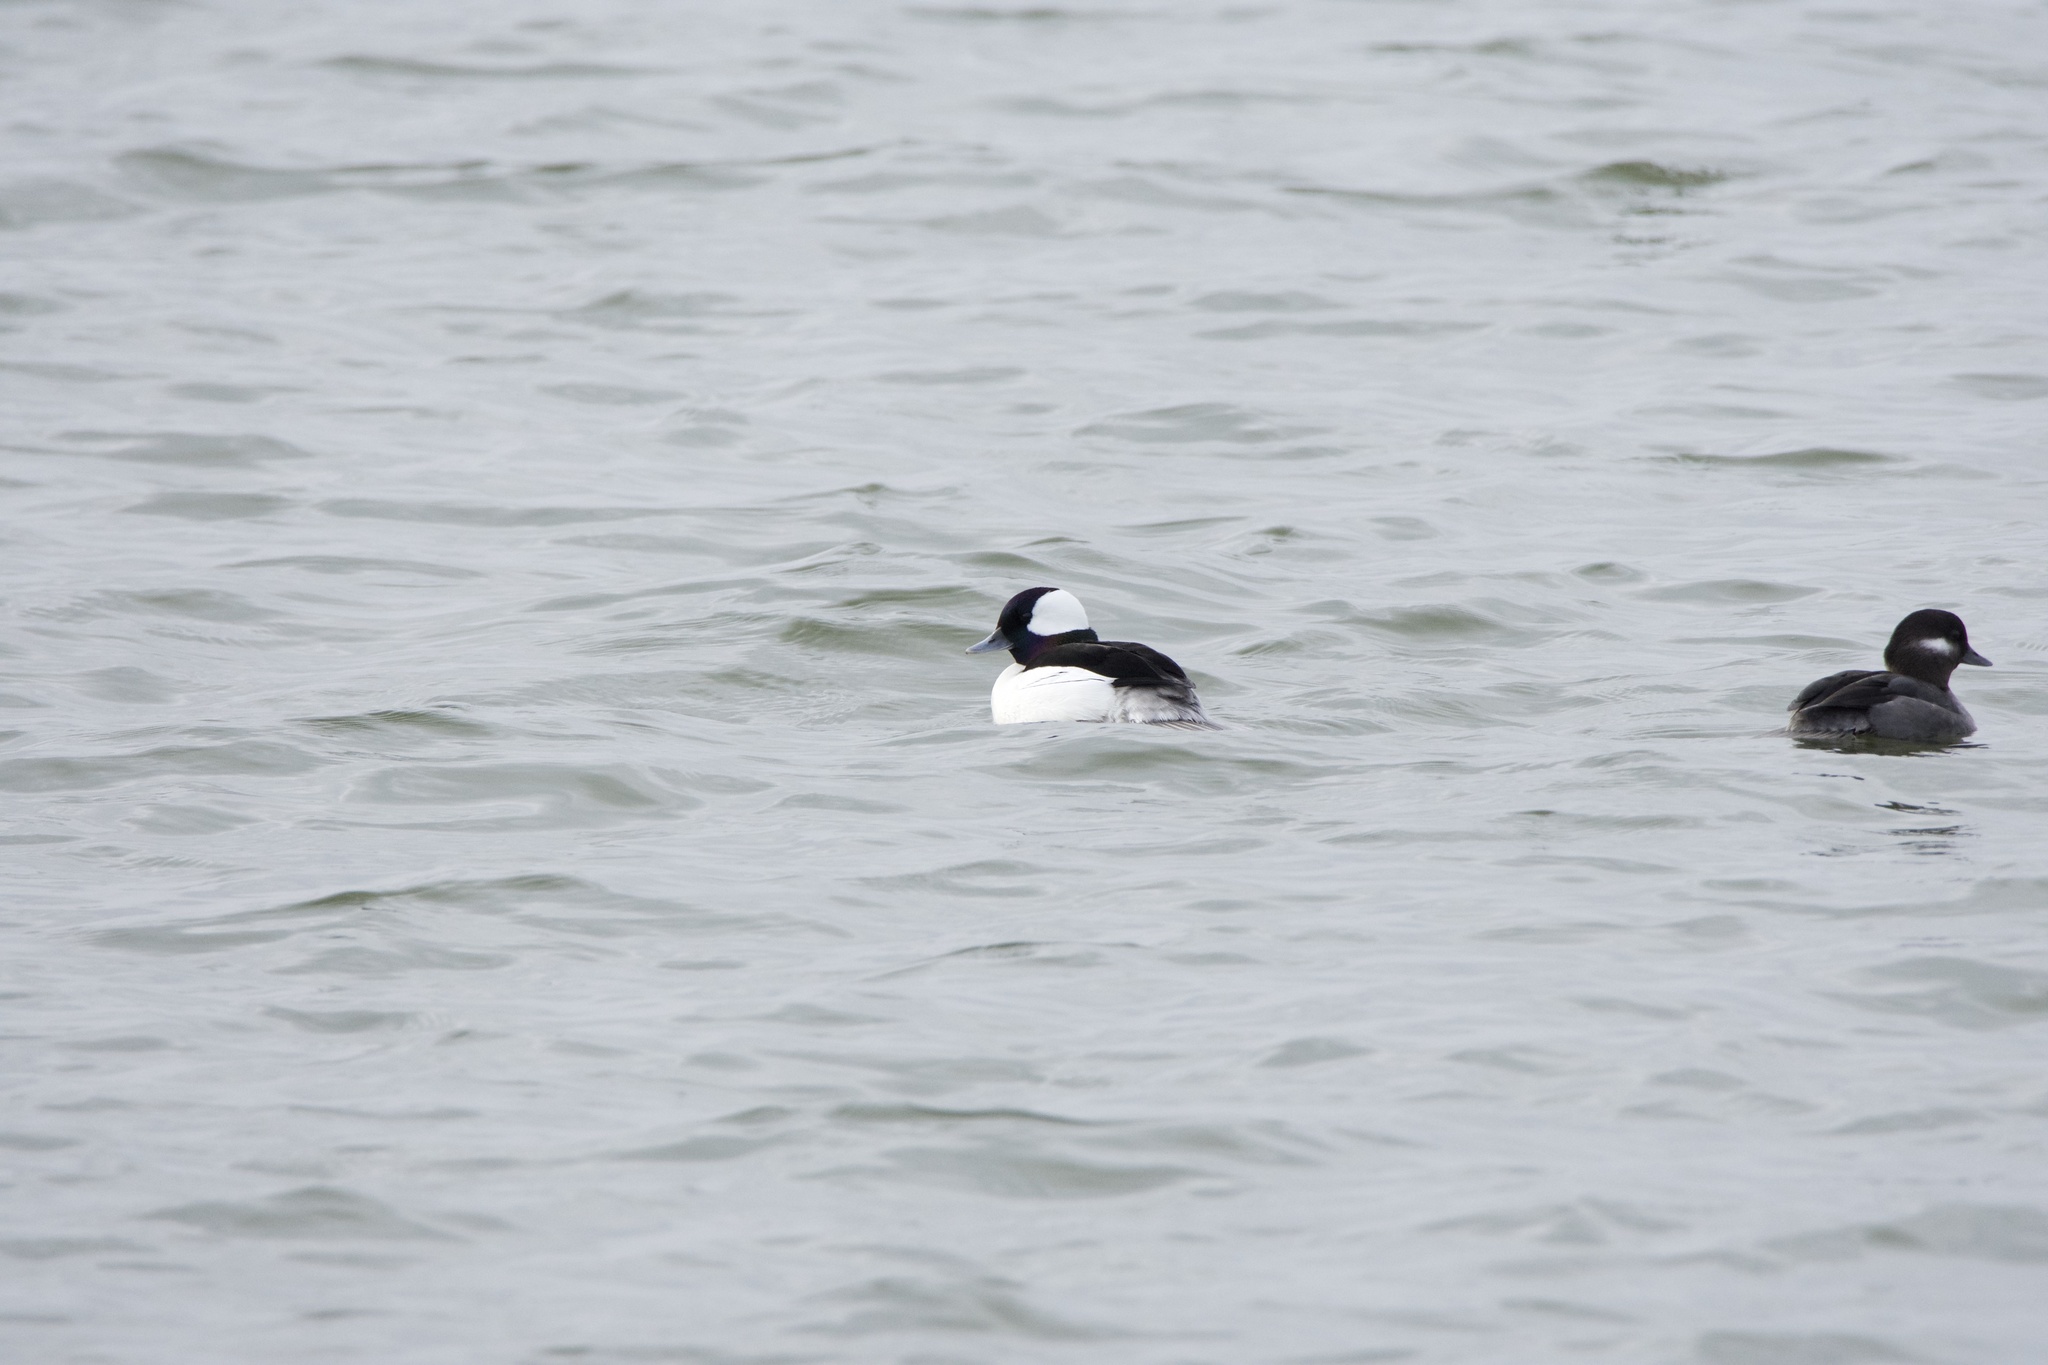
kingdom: Animalia
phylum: Chordata
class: Aves
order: Anseriformes
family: Anatidae
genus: Bucephala
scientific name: Bucephala albeola
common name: Bufflehead
